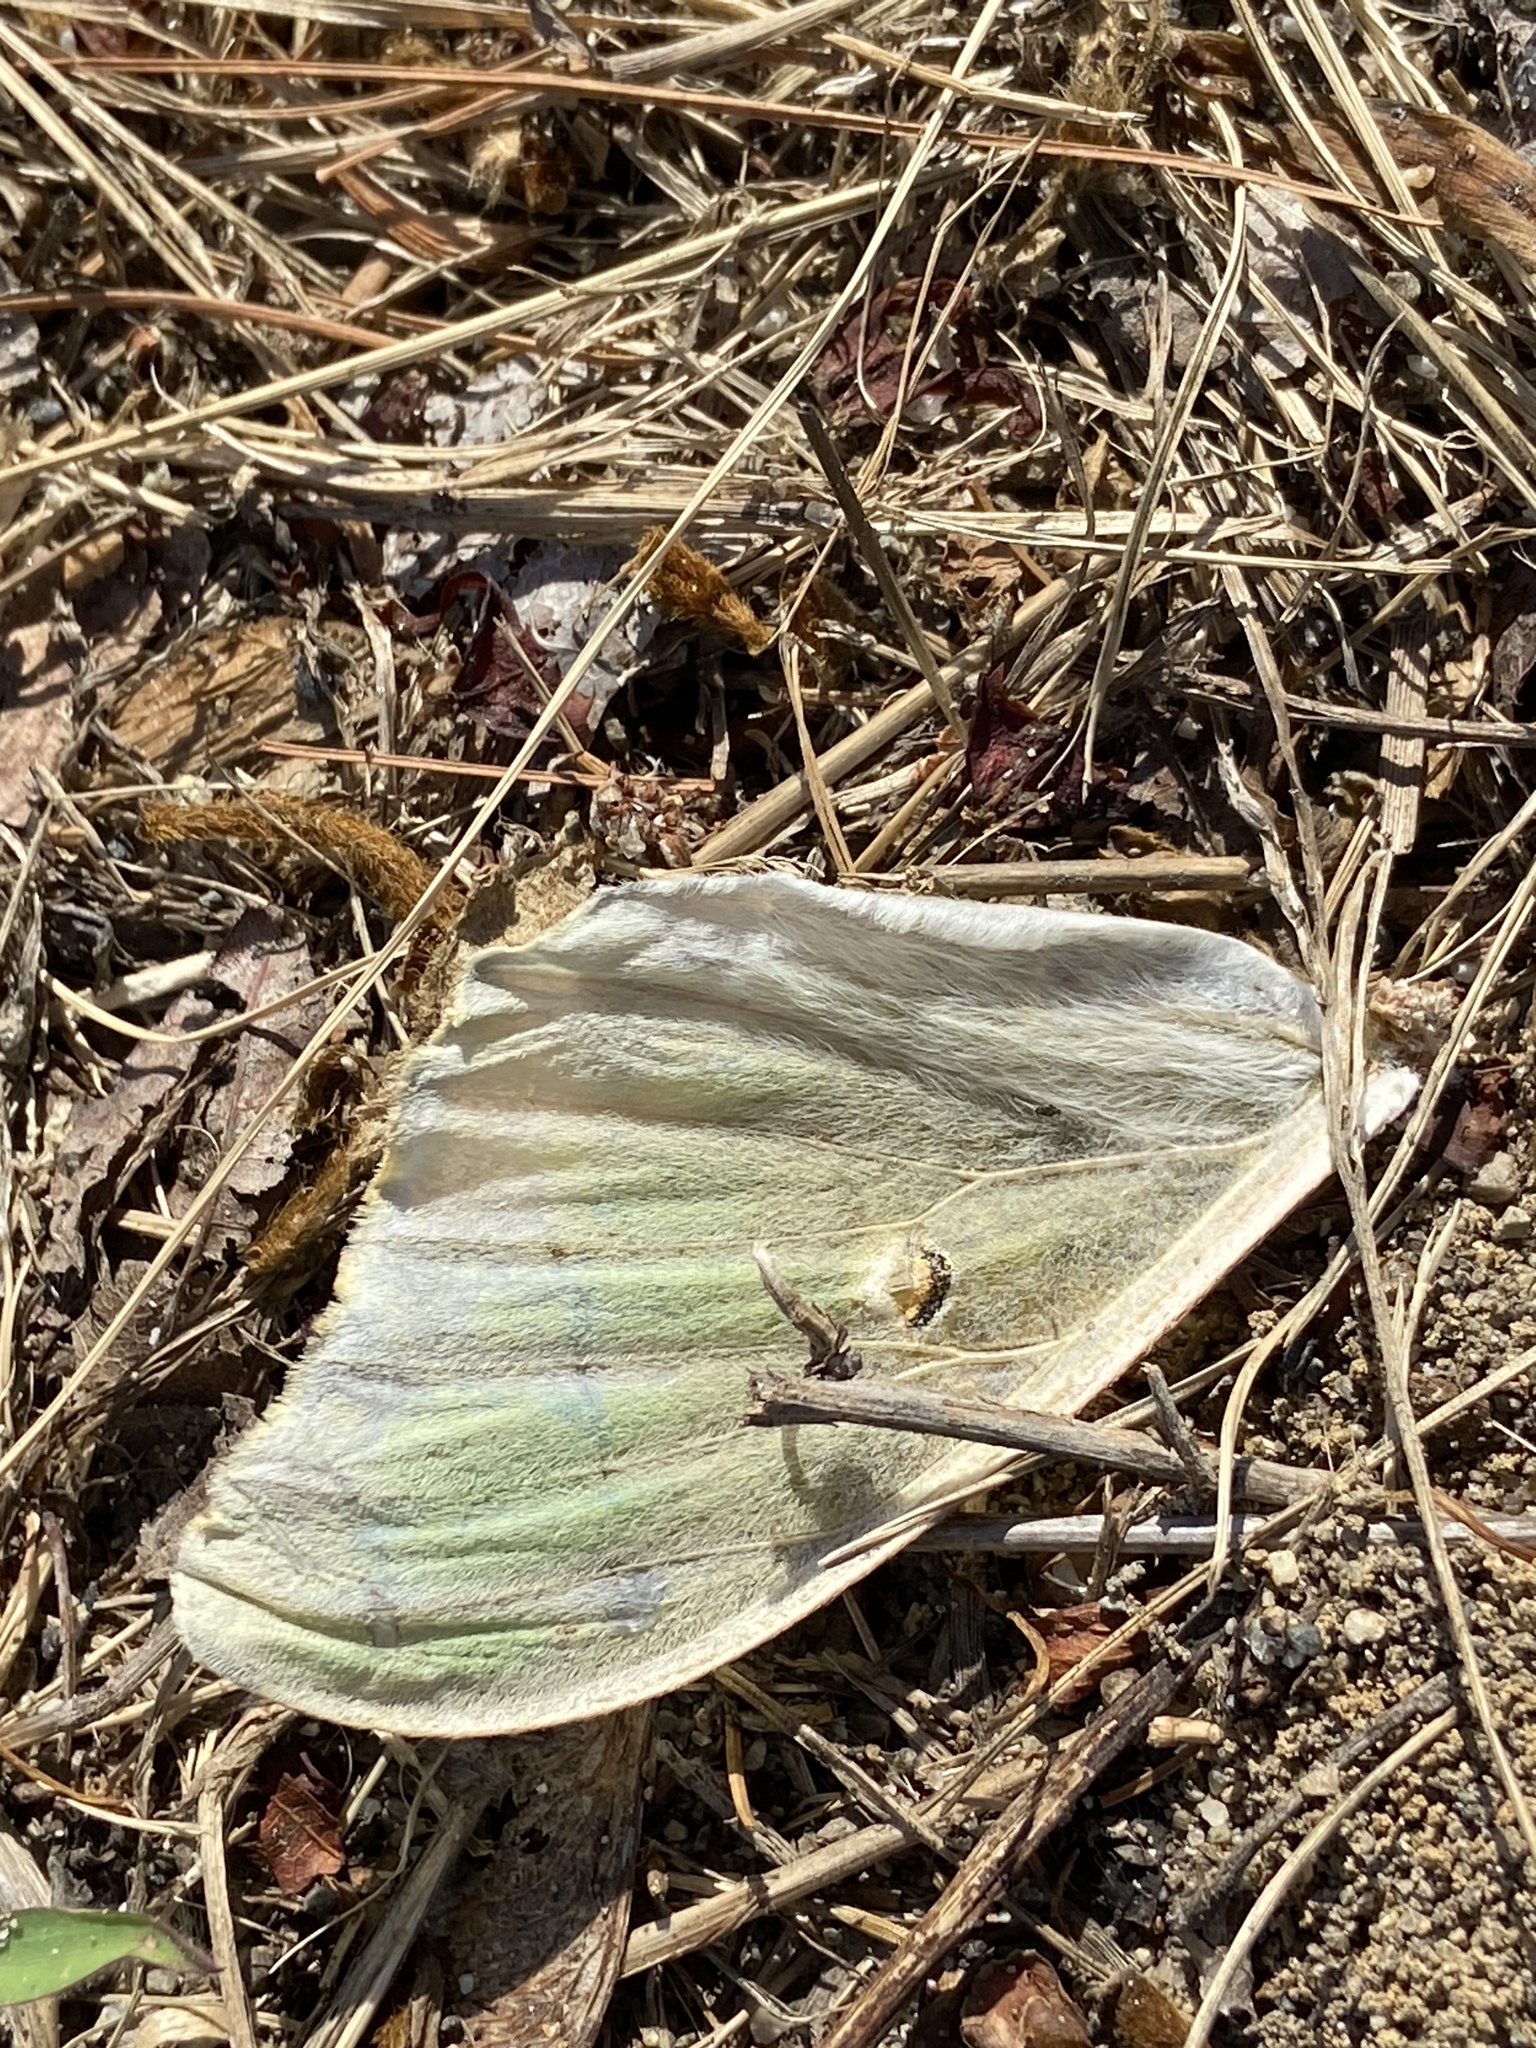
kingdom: Animalia
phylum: Arthropoda
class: Insecta
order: Lepidoptera
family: Saturniidae
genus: Actias
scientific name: Actias luna
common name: Luna moth
